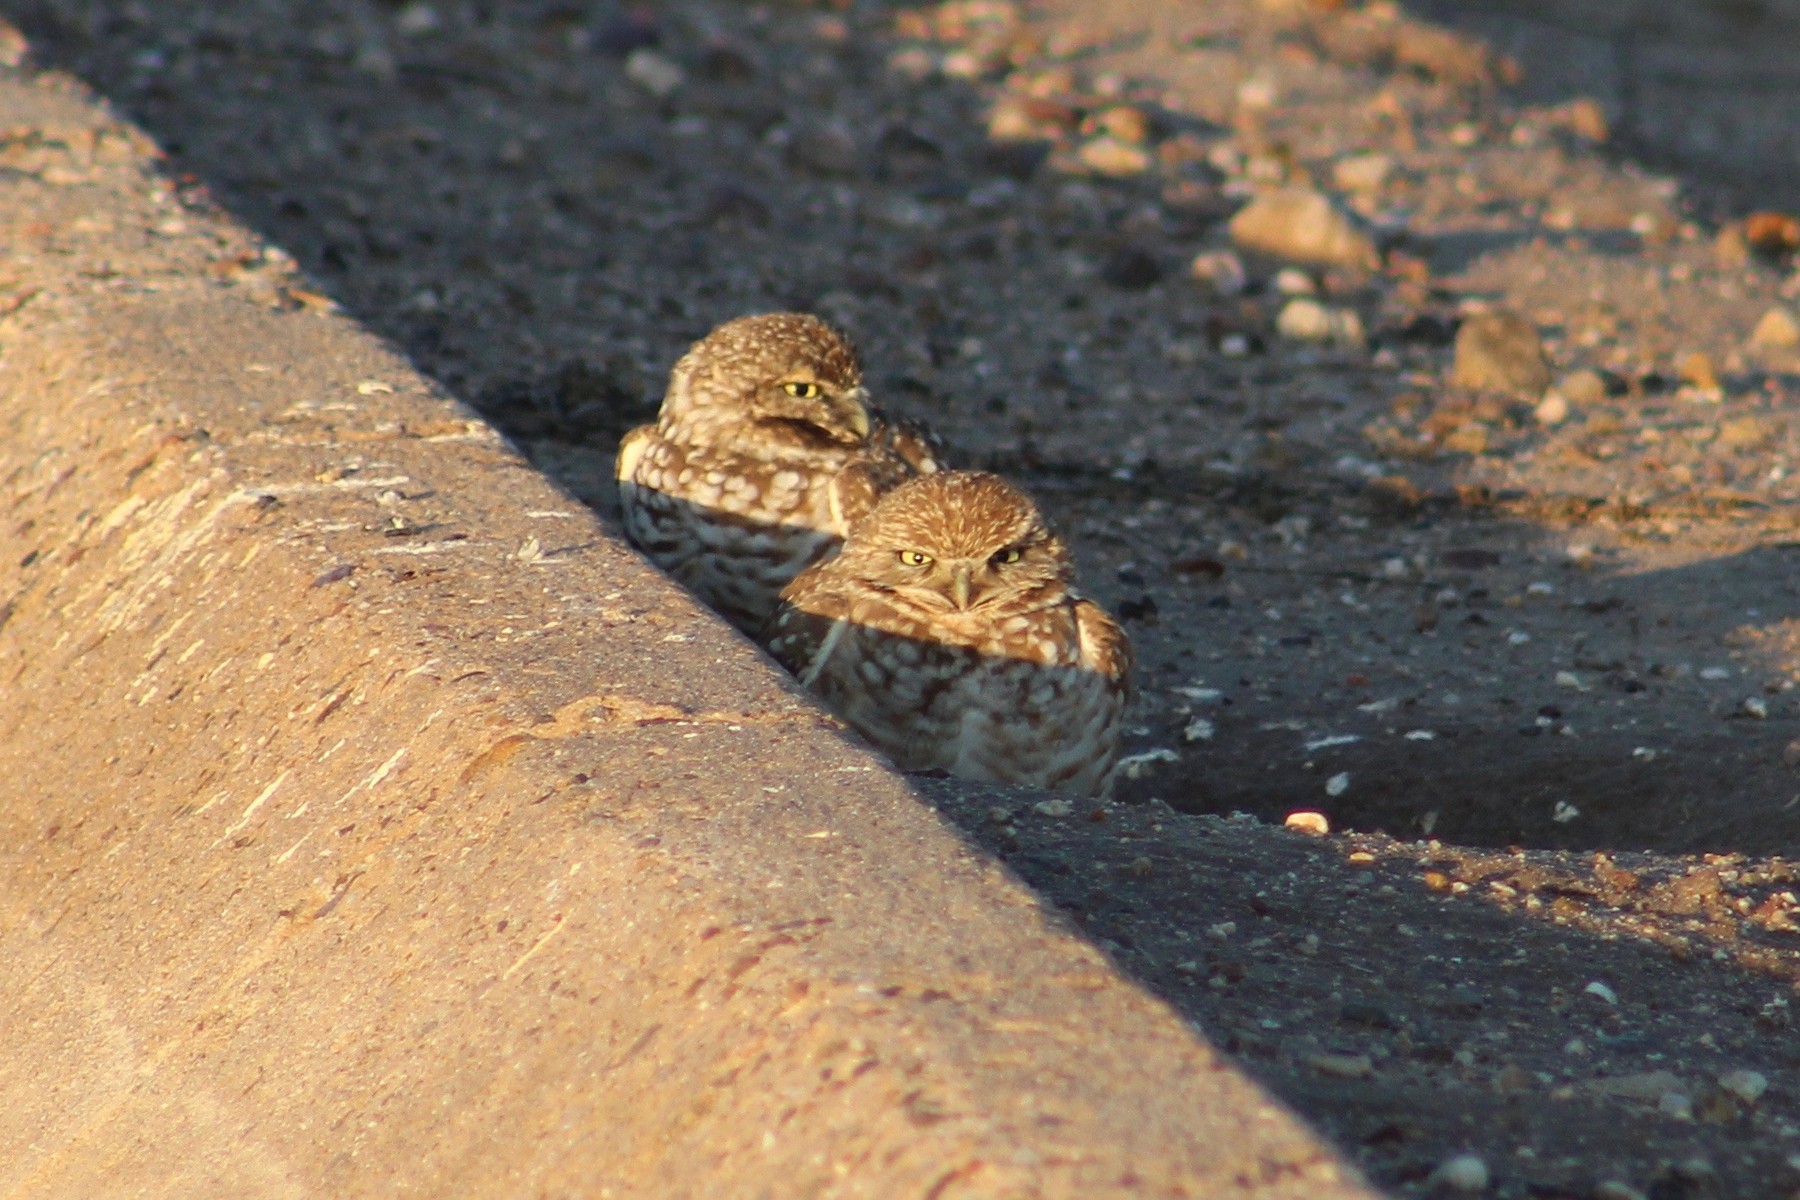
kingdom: Animalia
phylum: Chordata
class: Aves
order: Strigiformes
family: Strigidae
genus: Athene
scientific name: Athene cunicularia
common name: Burrowing owl
